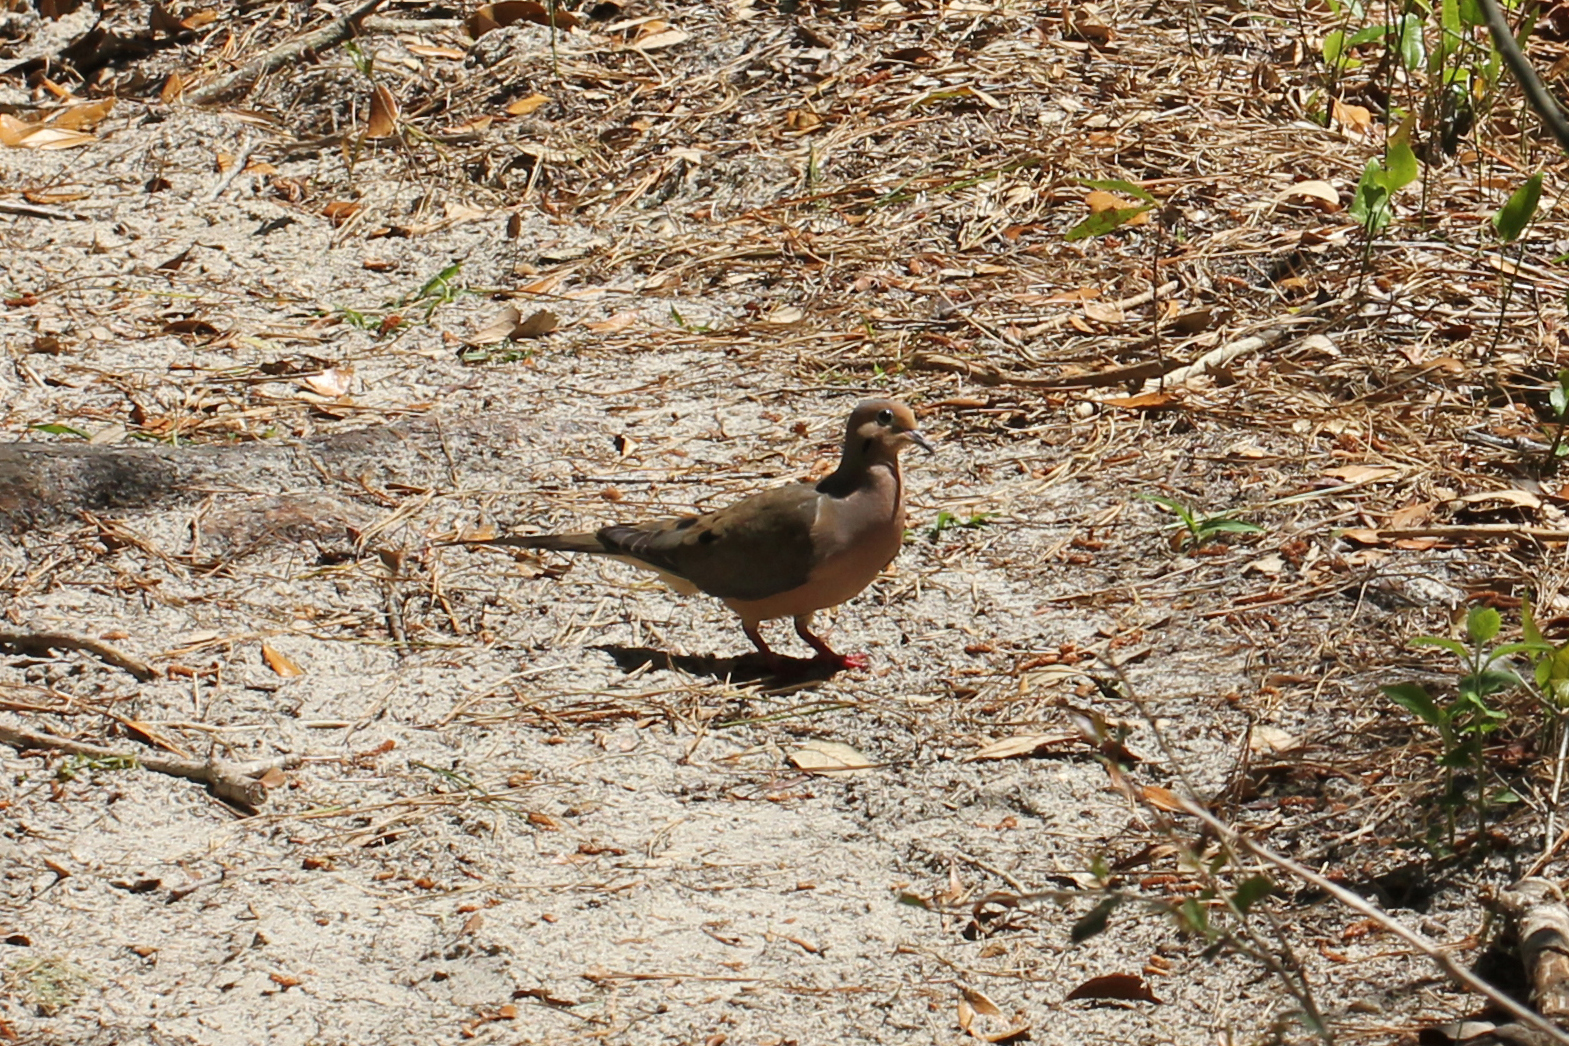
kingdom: Animalia
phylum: Chordata
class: Aves
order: Columbiformes
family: Columbidae
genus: Zenaida
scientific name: Zenaida macroura
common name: Mourning dove
